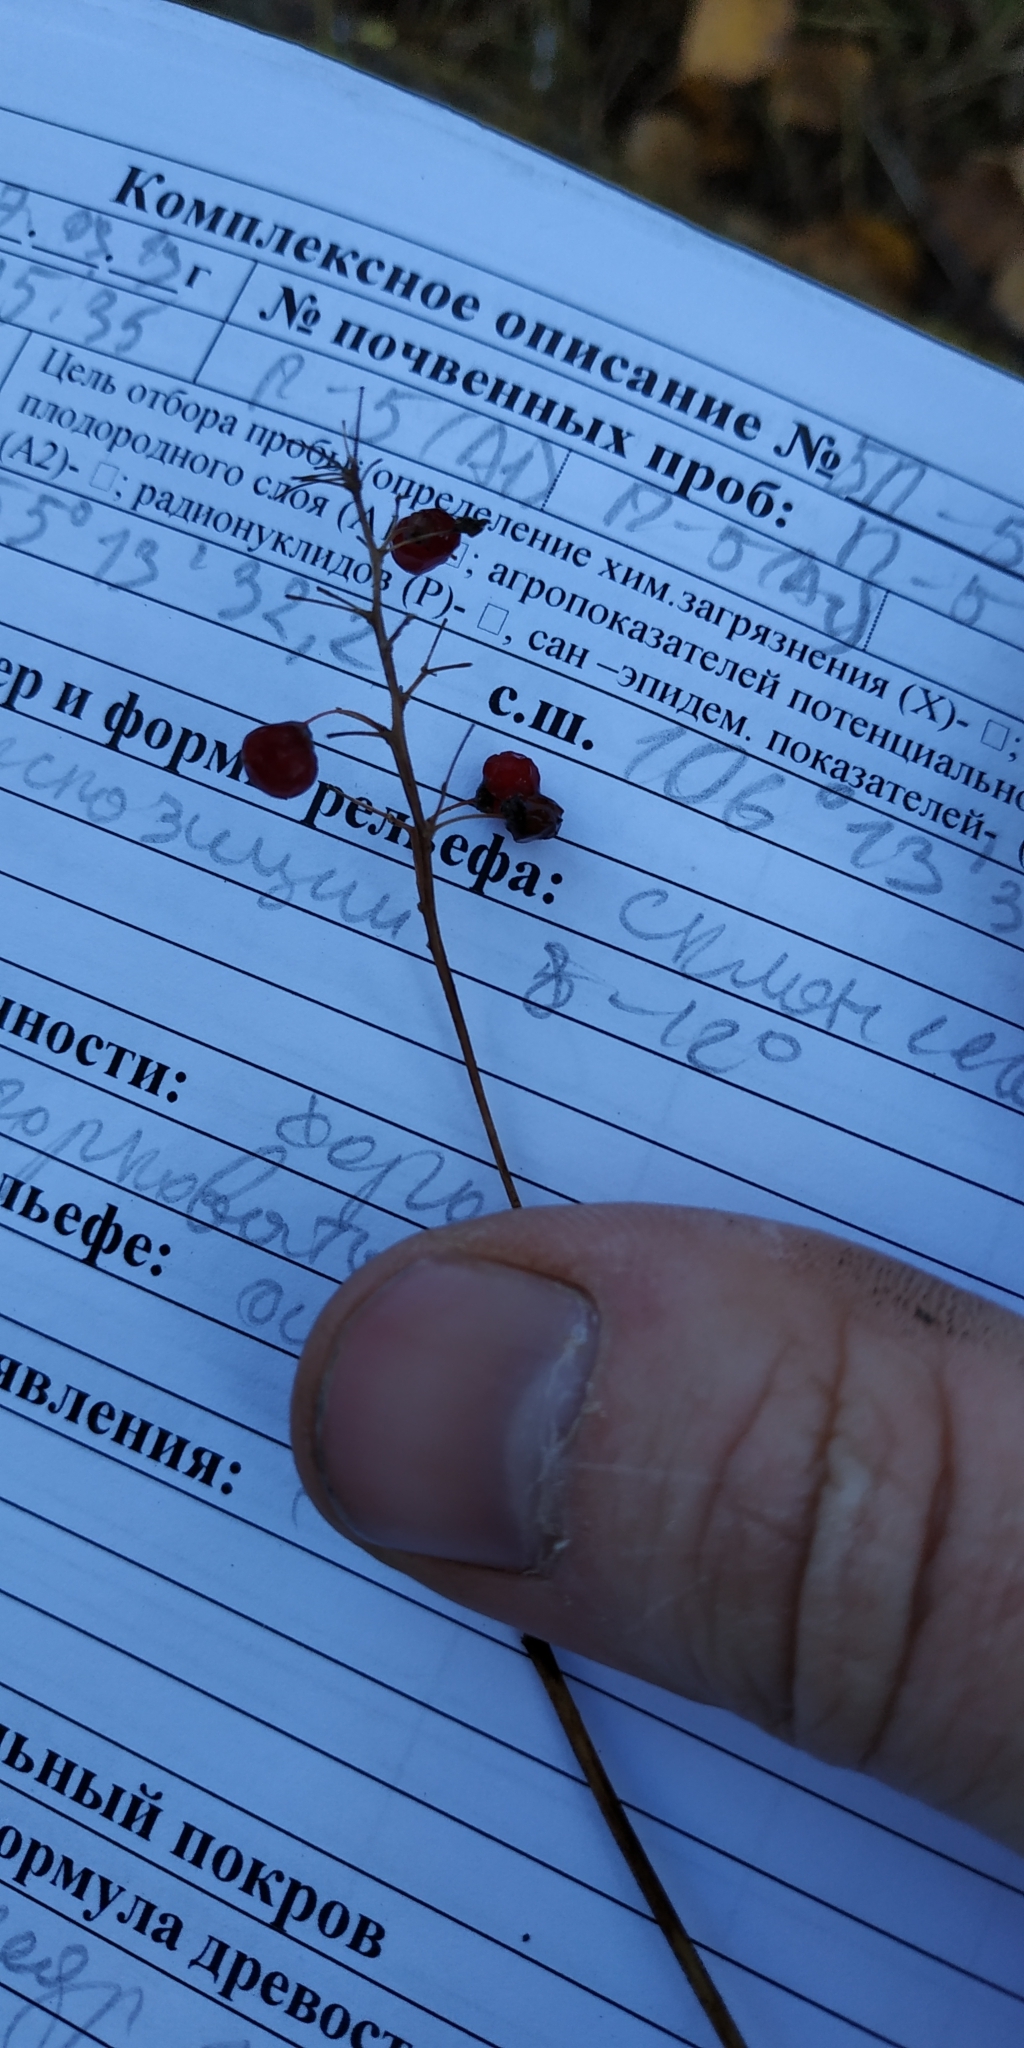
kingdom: Plantae
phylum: Tracheophyta
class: Liliopsida
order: Asparagales
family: Asparagaceae
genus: Maianthemum
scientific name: Maianthemum bifolium
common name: May lily
